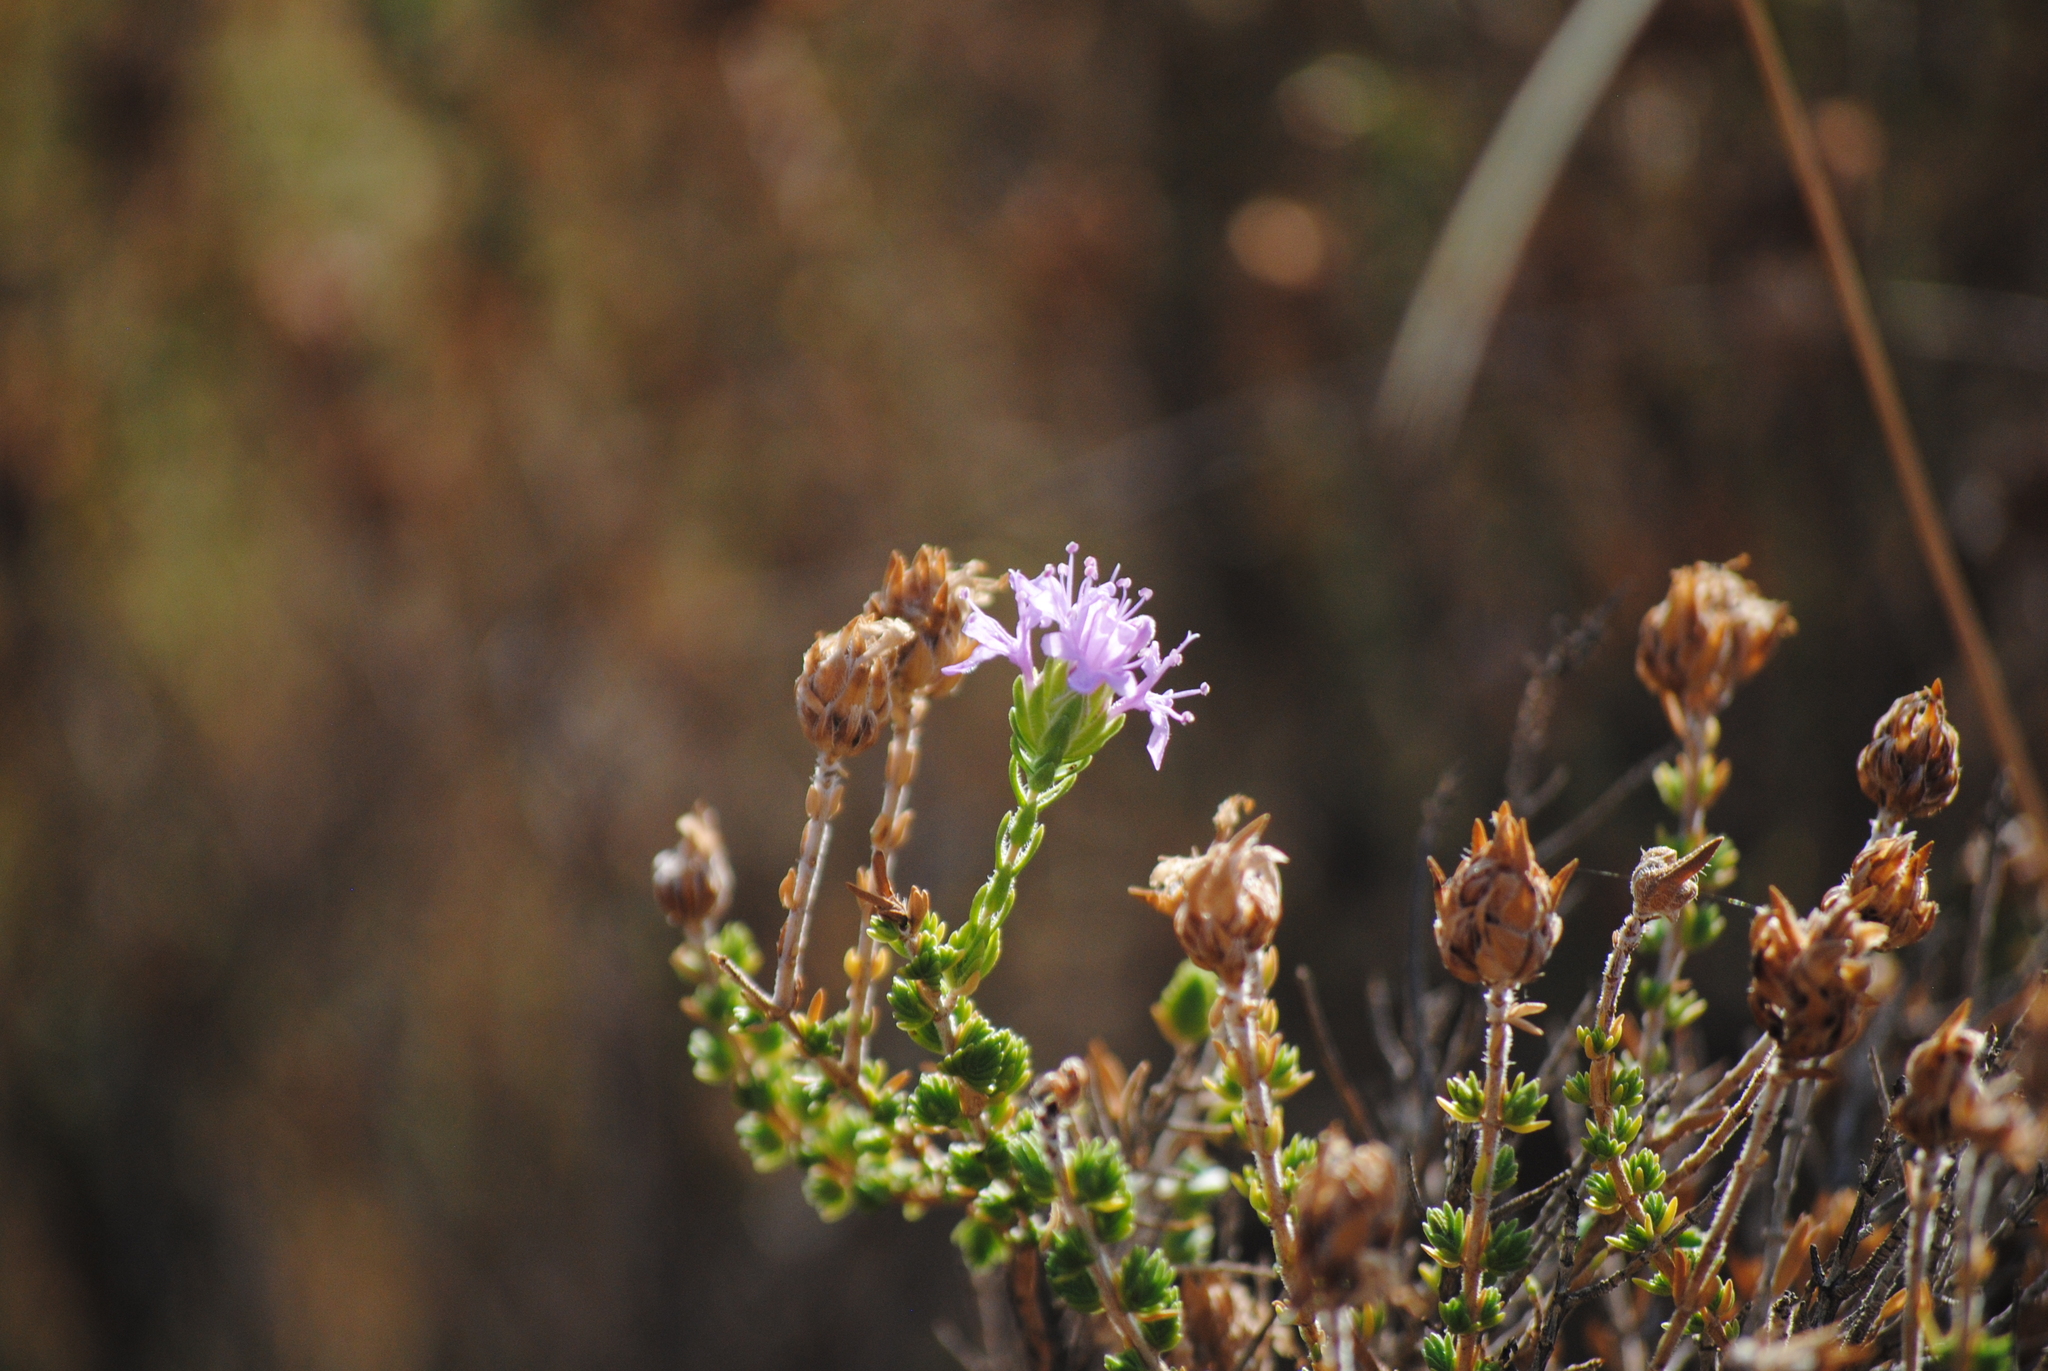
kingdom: Plantae
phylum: Tracheophyta
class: Magnoliopsida
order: Lamiales
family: Lamiaceae
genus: Thymbra
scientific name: Thymbra capitata
